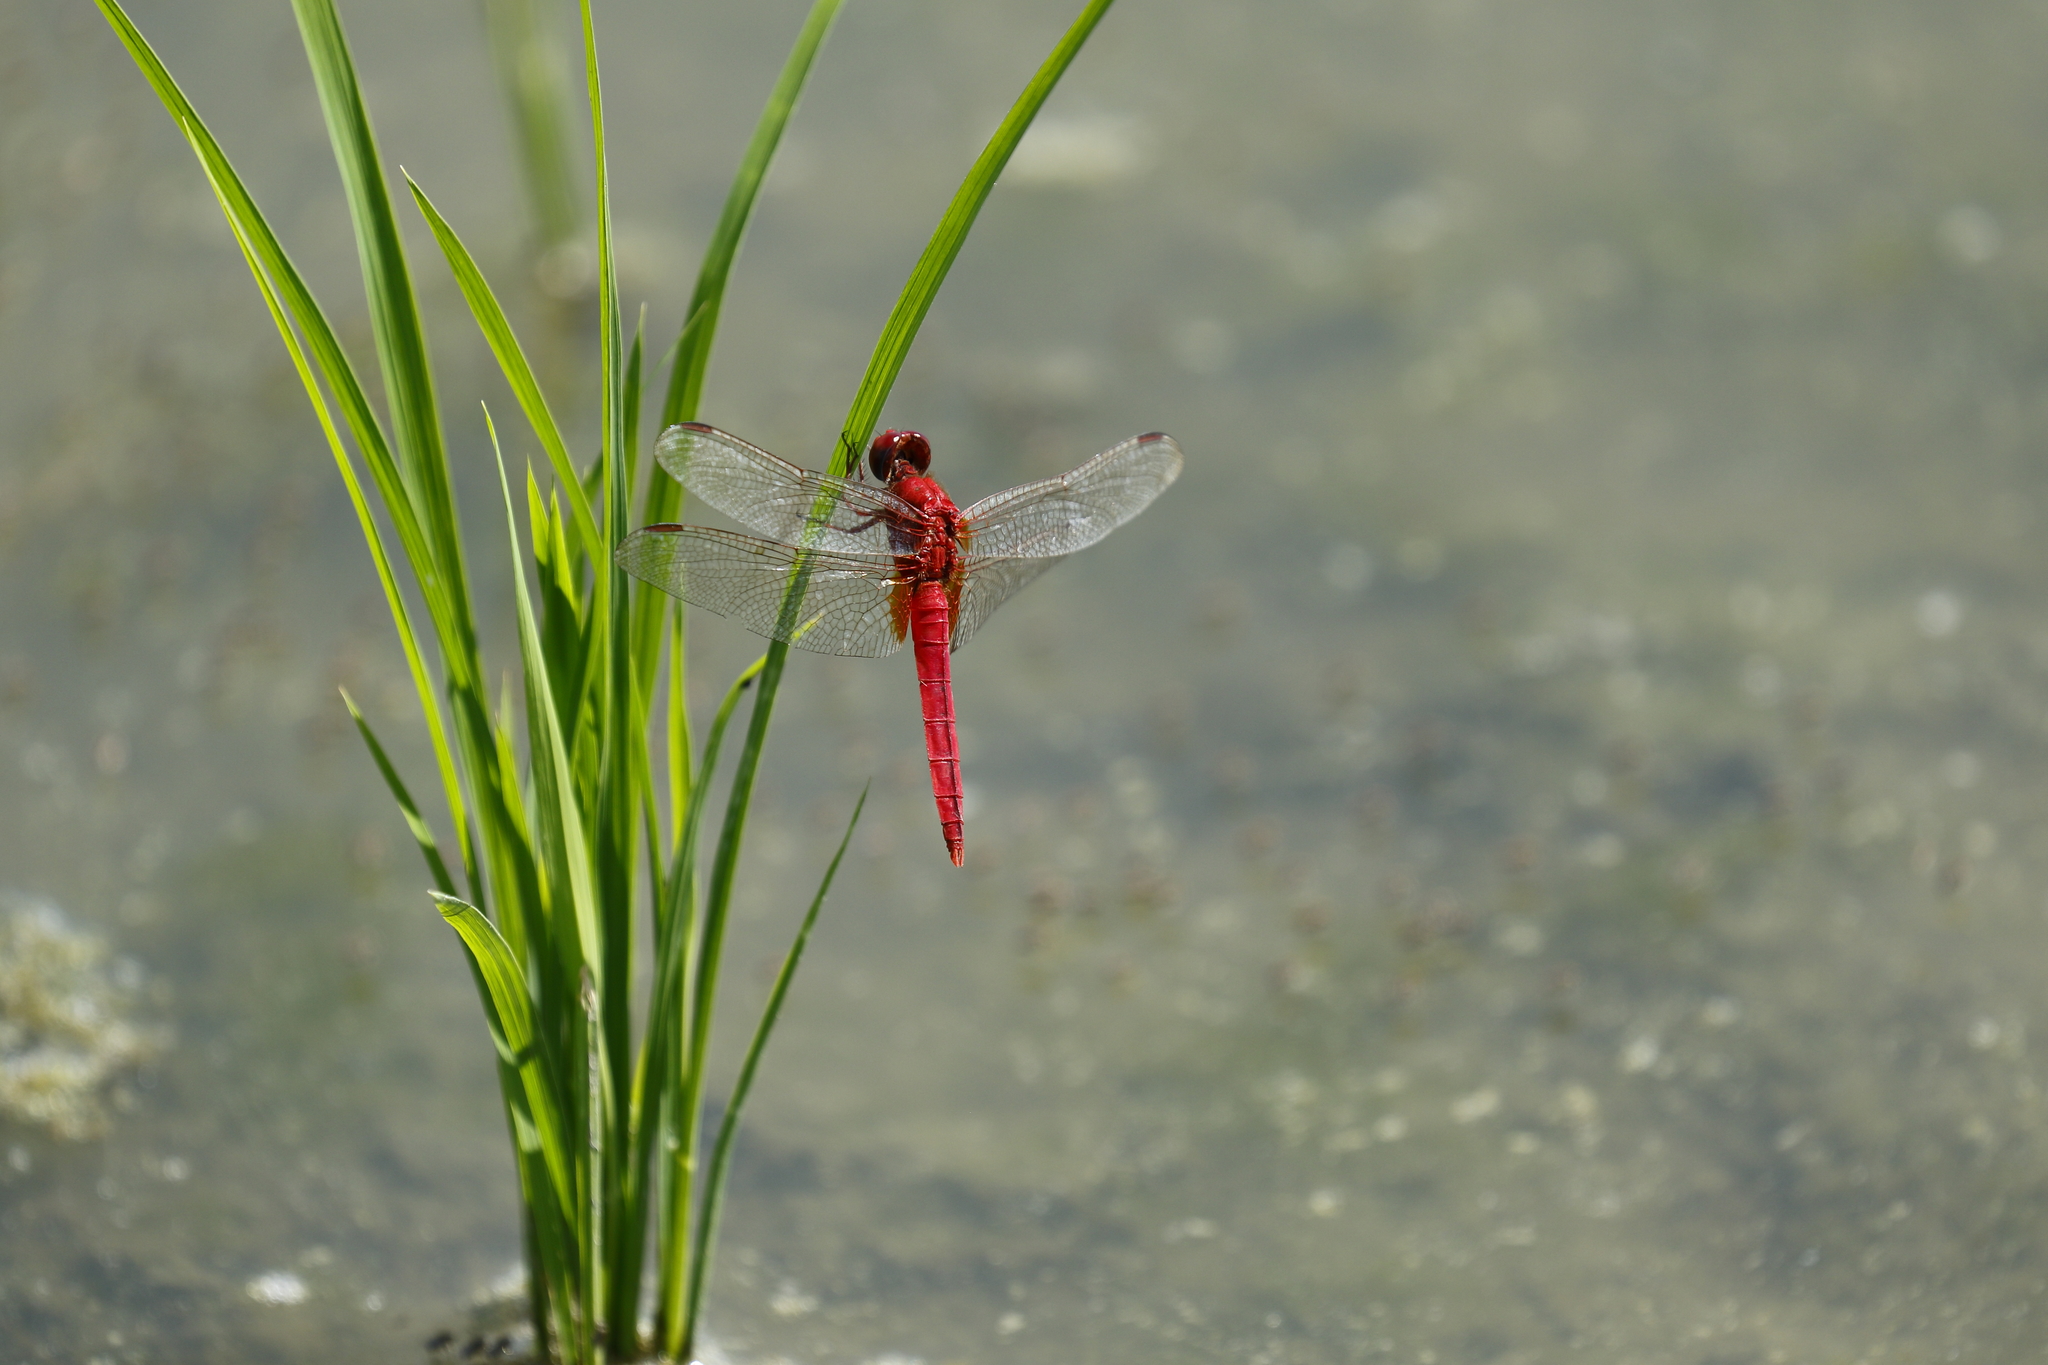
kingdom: Animalia
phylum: Arthropoda
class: Insecta
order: Odonata
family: Libellulidae
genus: Crocothemis
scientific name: Crocothemis servilia
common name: Scarlet skimmer
